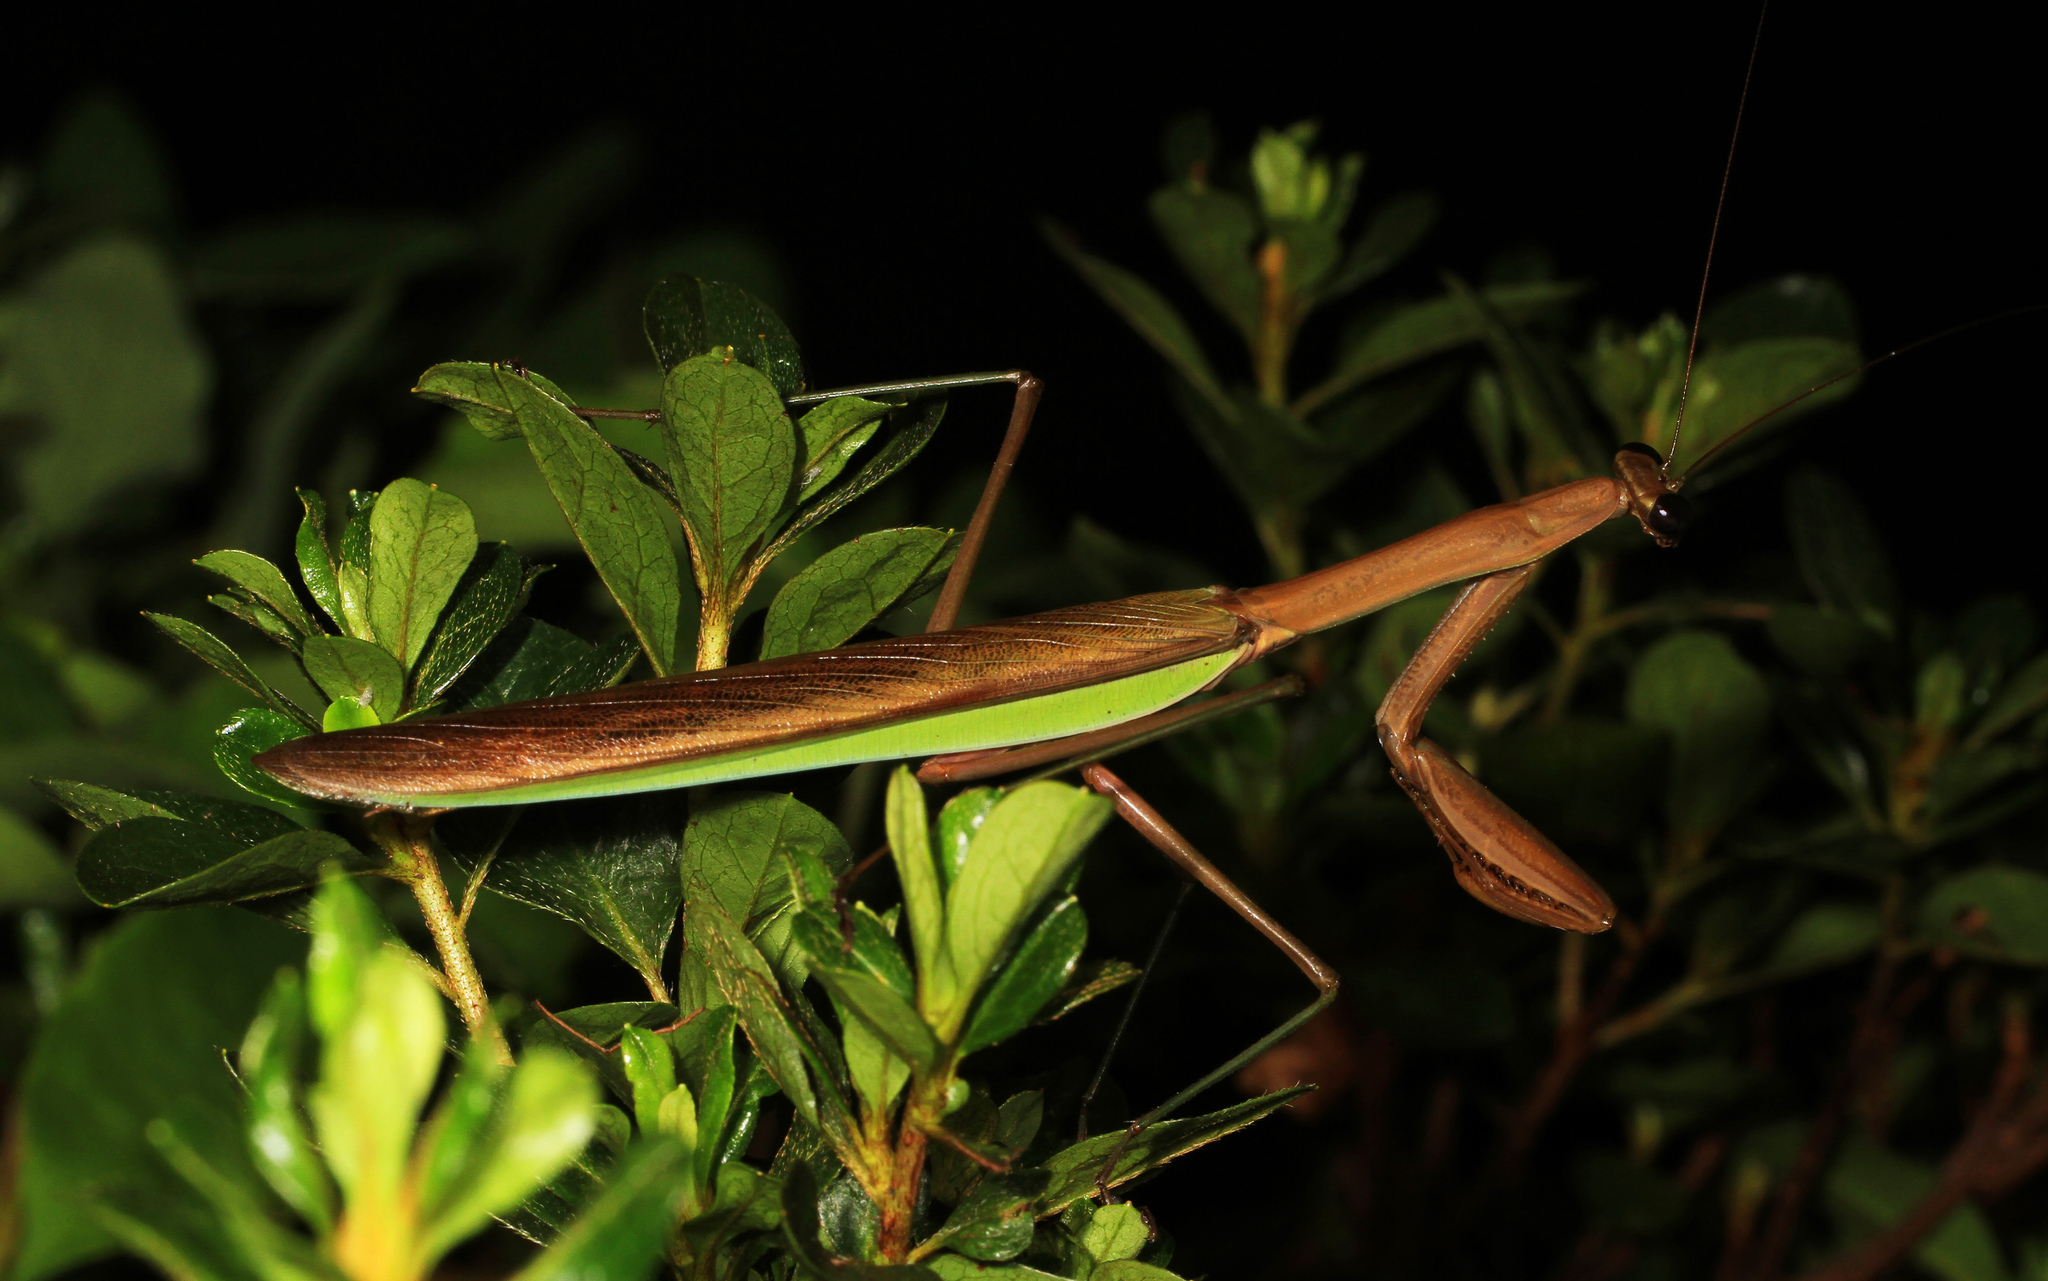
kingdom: Animalia
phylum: Arthropoda
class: Insecta
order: Mantodea
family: Mantidae
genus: Tenodera
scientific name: Tenodera sinensis
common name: Chinese mantis
